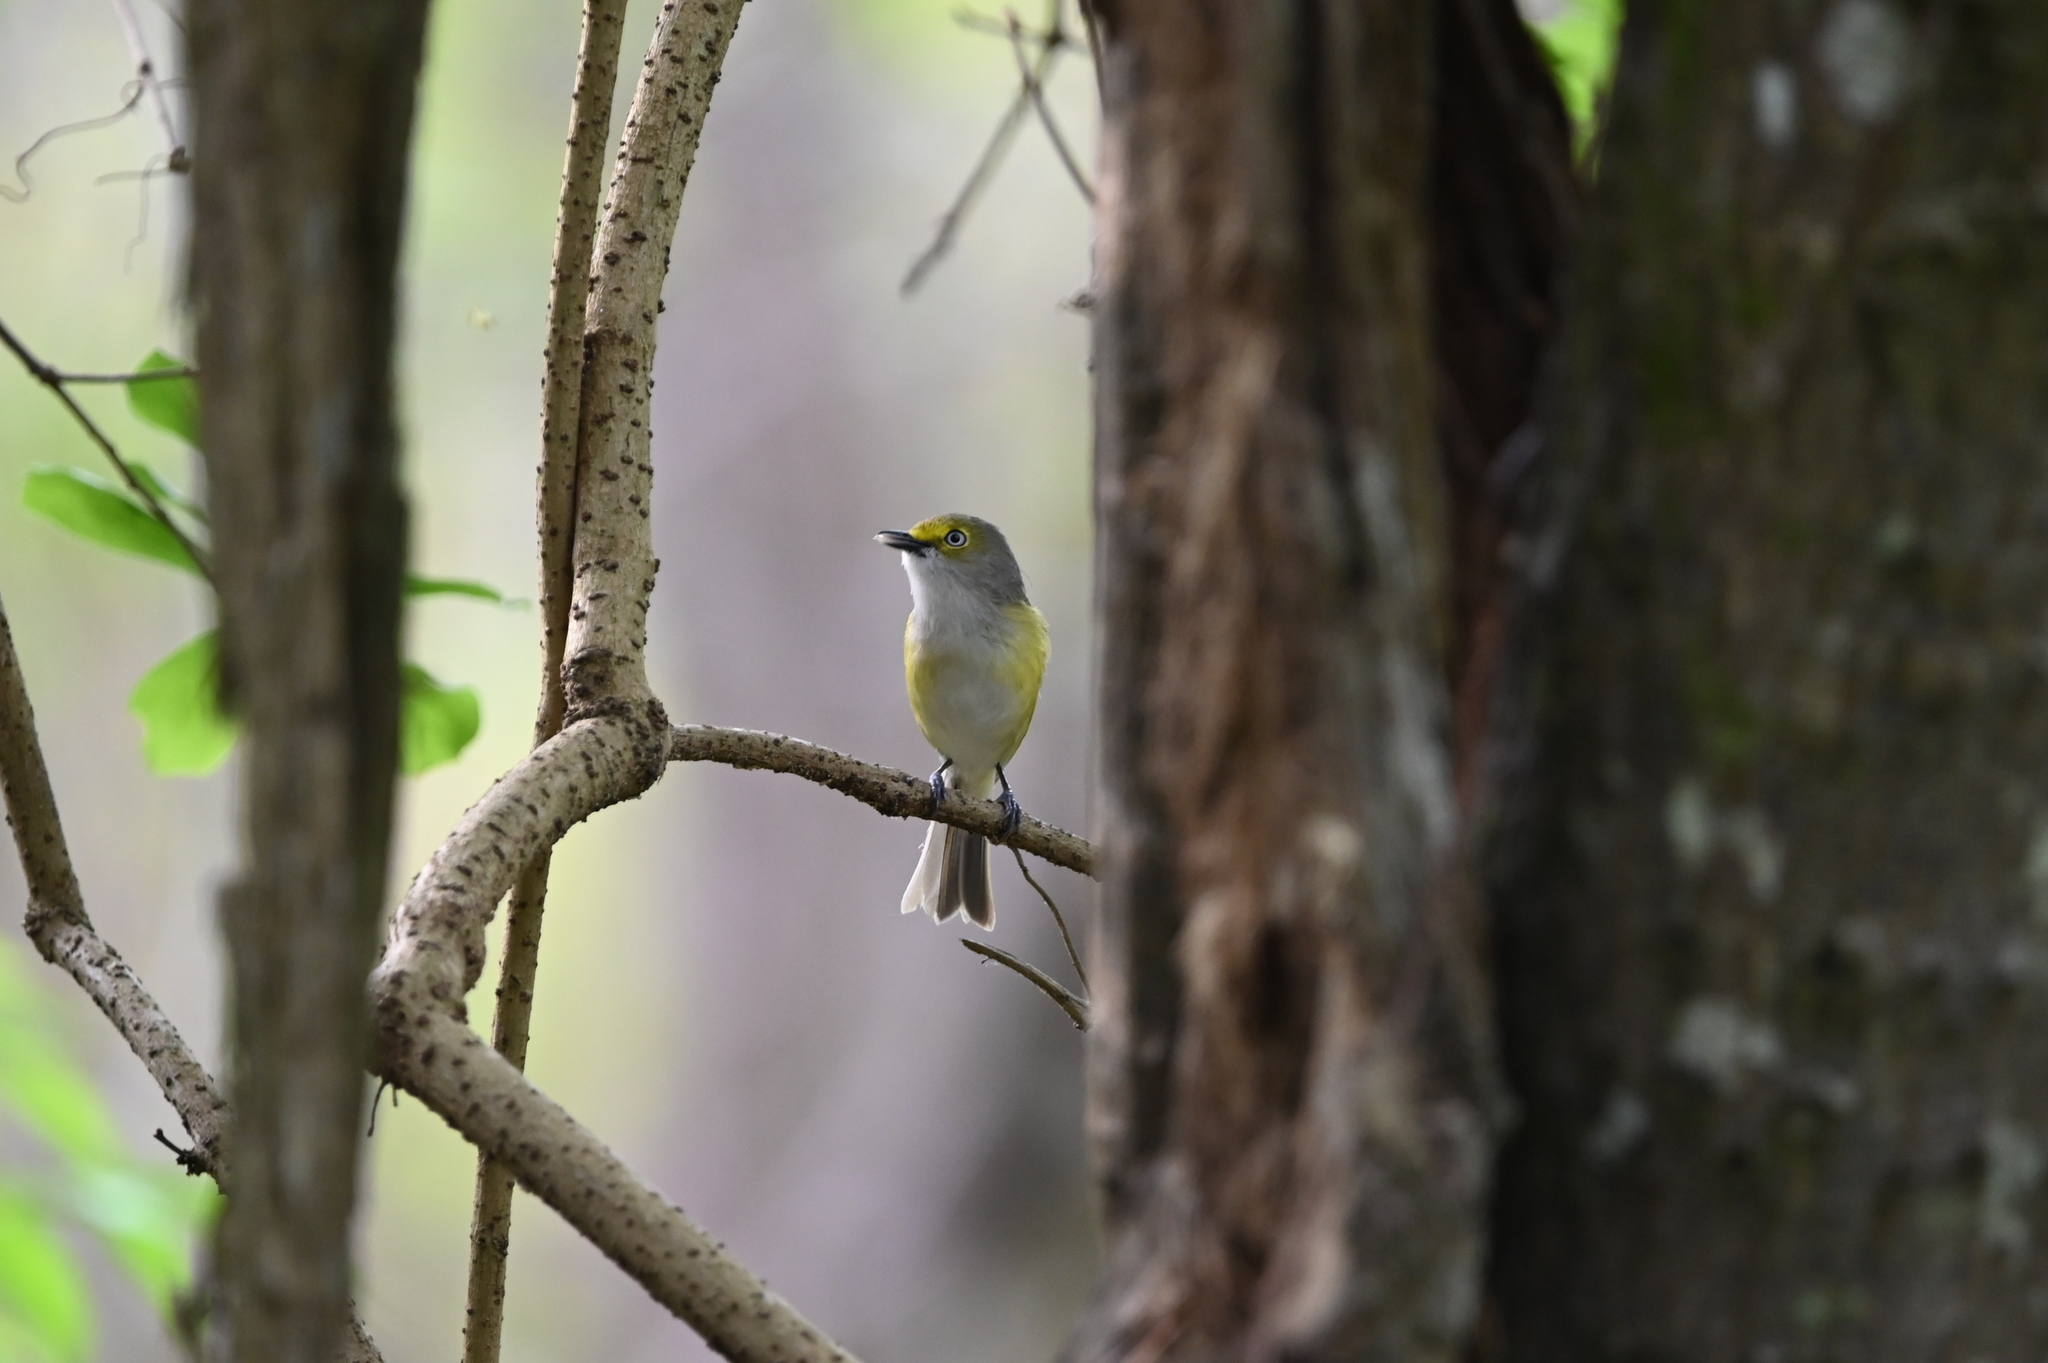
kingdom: Animalia
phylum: Chordata
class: Aves
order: Passeriformes
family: Vireonidae
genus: Vireo
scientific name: Vireo griseus
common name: White-eyed vireo
